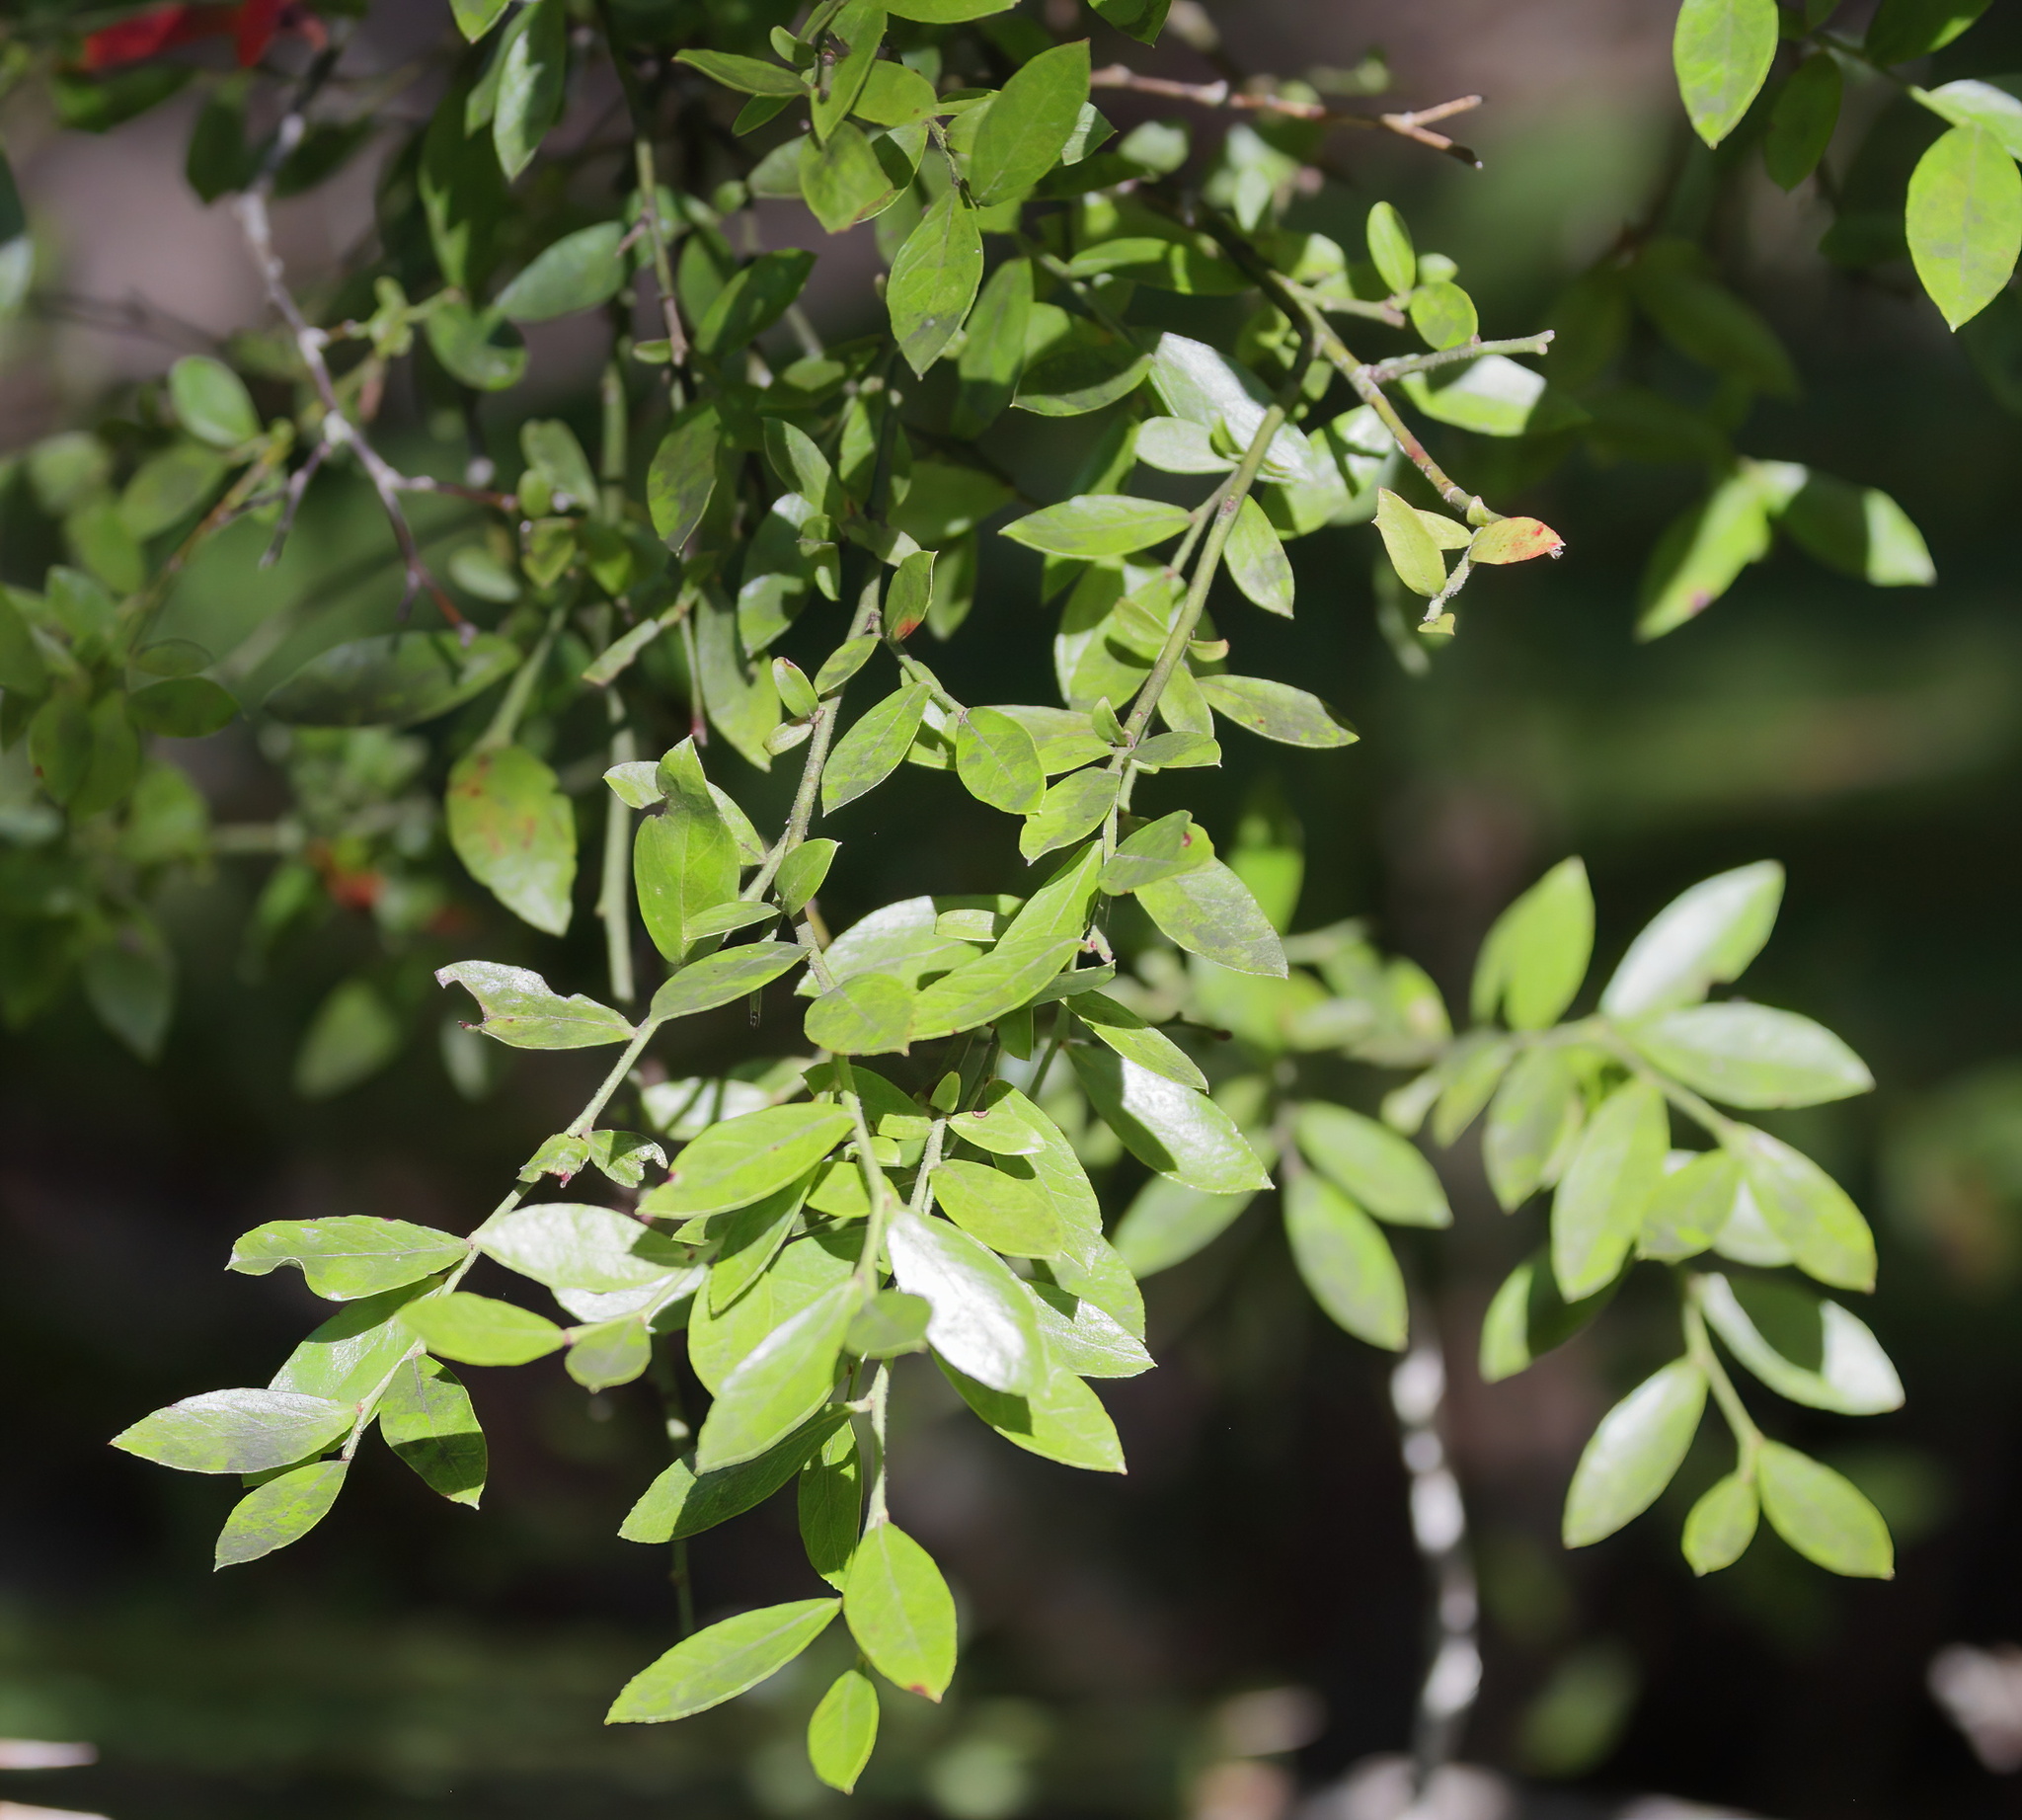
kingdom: Plantae
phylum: Tracheophyta
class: Magnoliopsida
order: Ericales
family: Ericaceae
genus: Vaccinium
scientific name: Vaccinium corymbosum
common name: Blueberry
